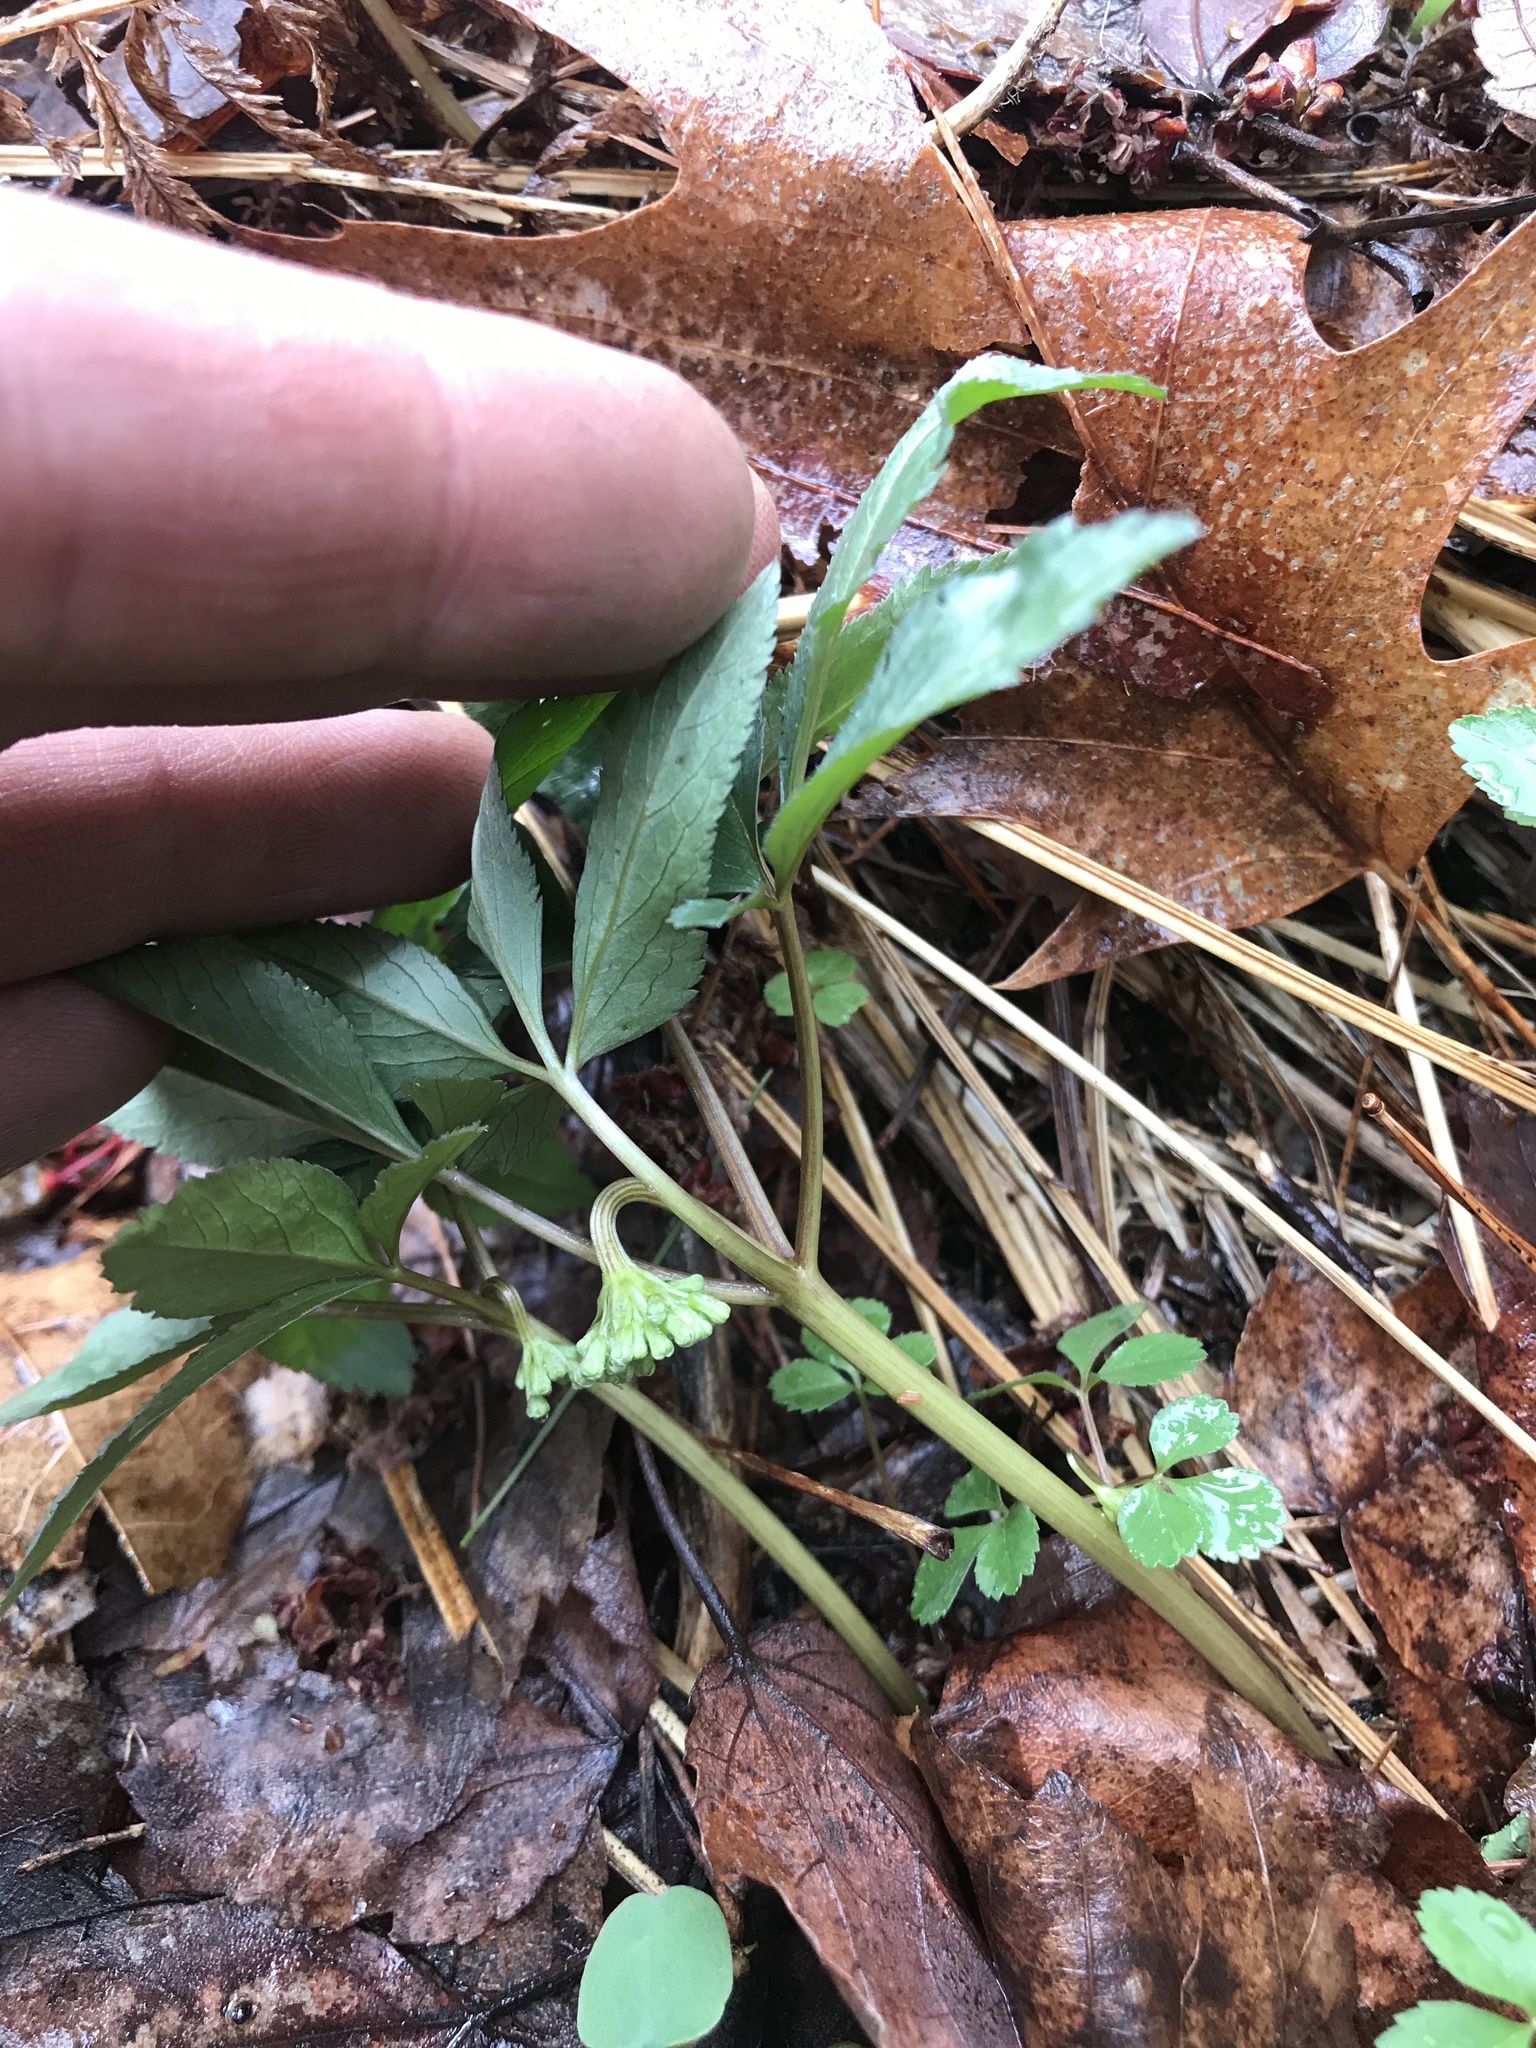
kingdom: Plantae
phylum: Tracheophyta
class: Magnoliopsida
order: Apiales
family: Araliaceae
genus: Panax
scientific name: Panax trifolius
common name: Dwarf ginseng
